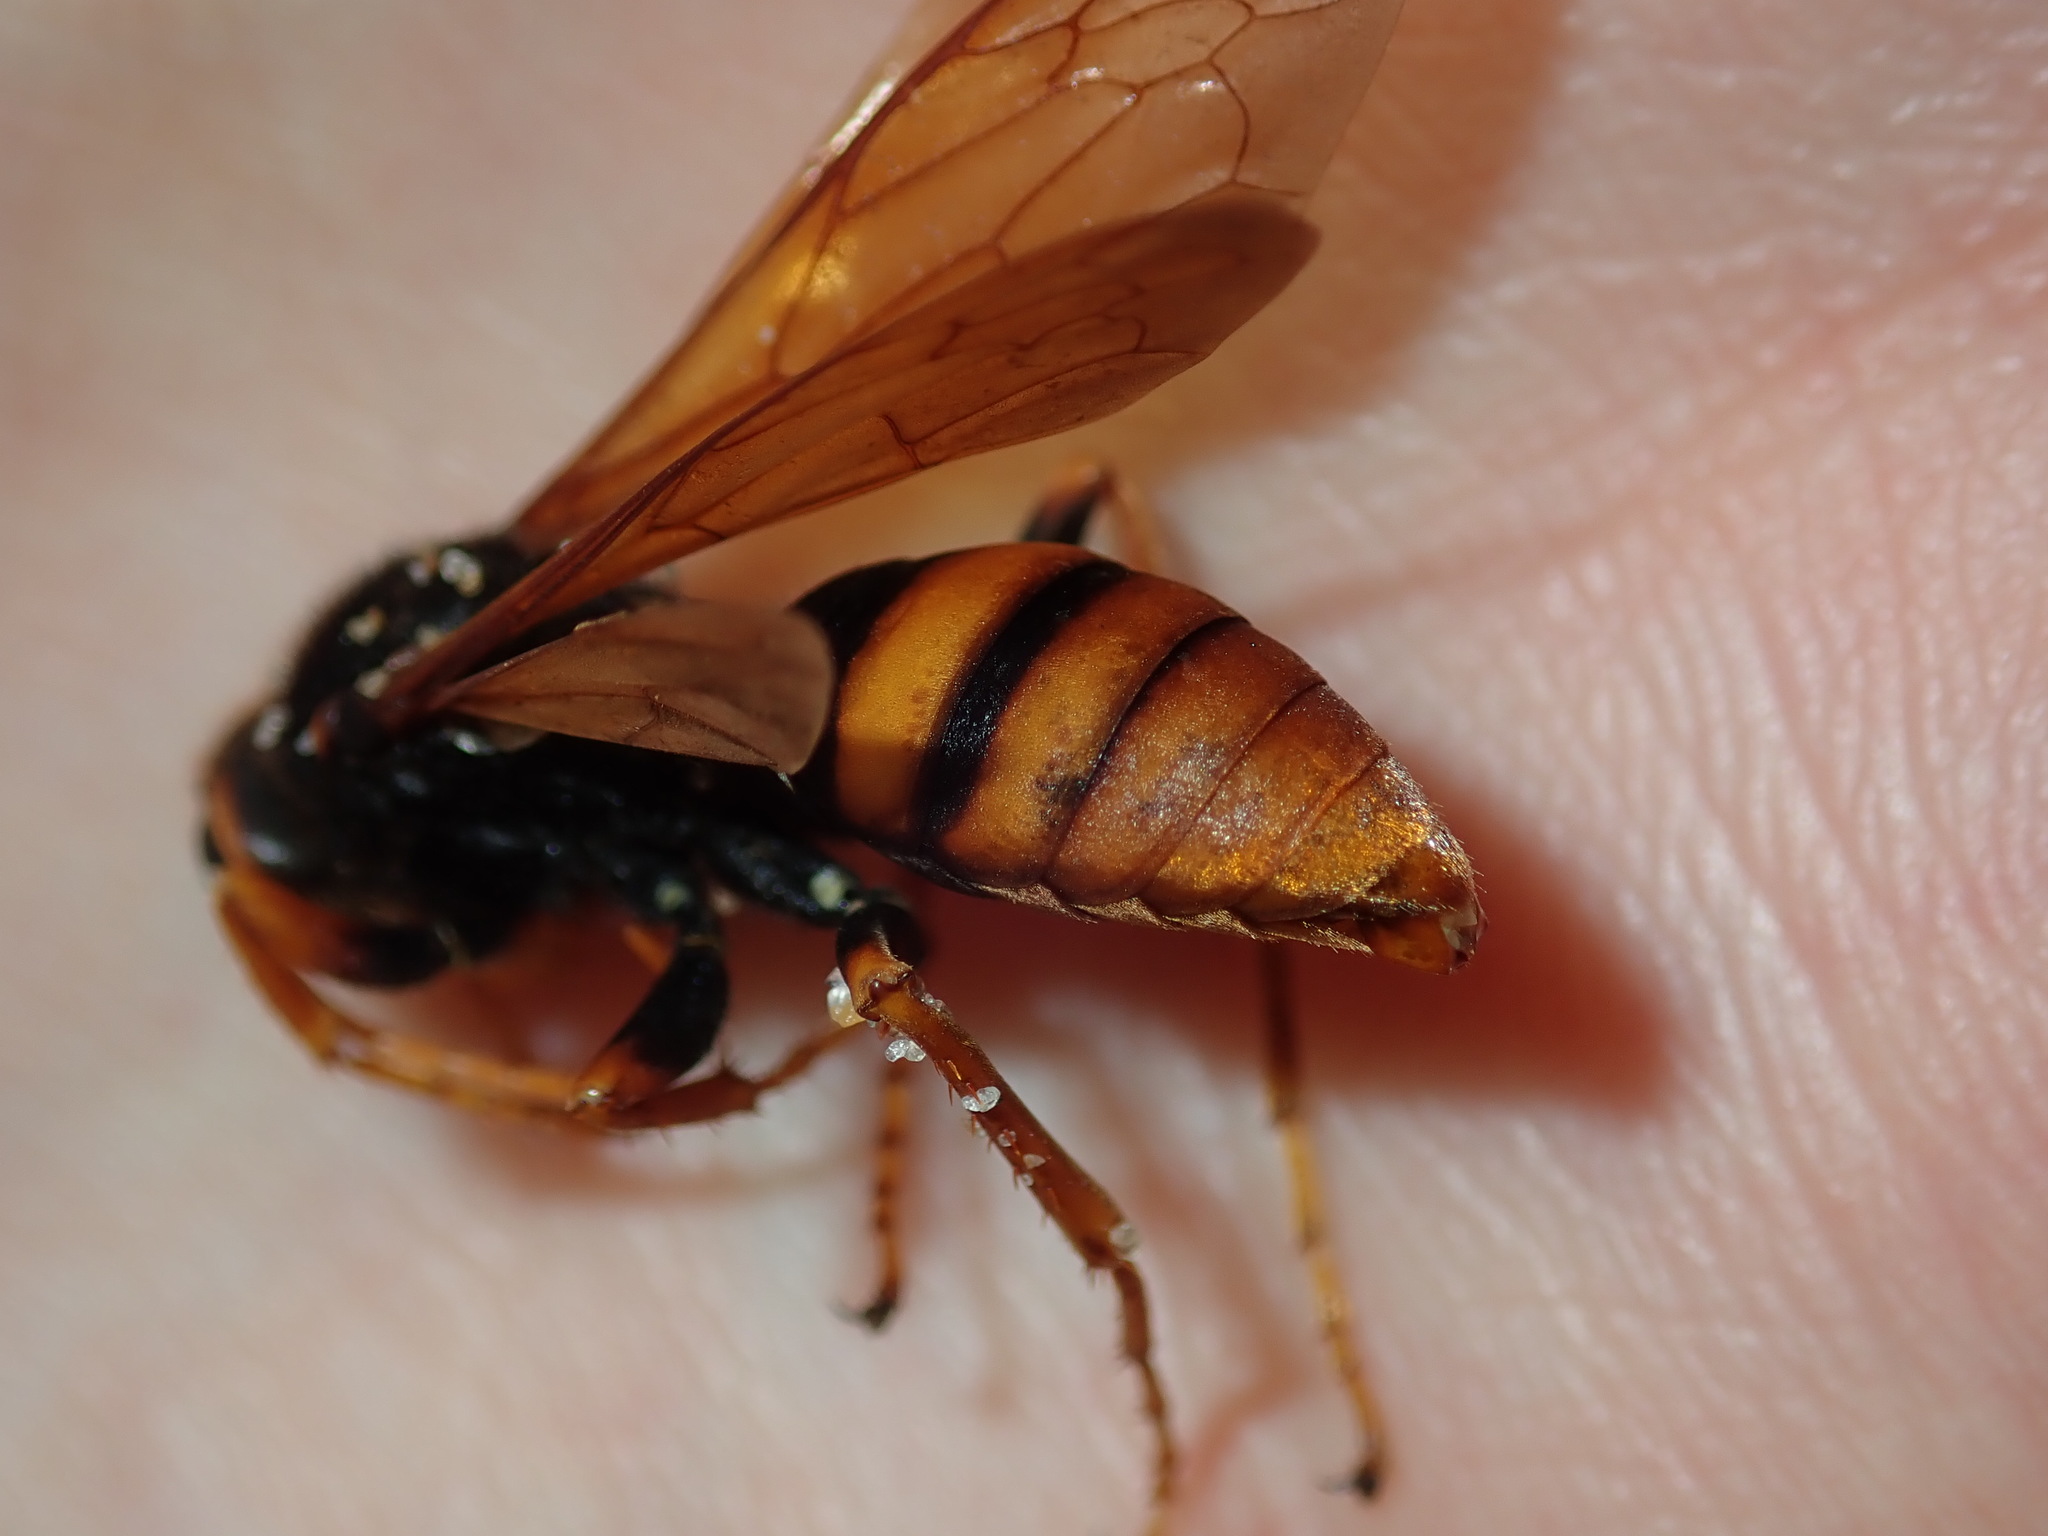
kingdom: Animalia
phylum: Arthropoda
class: Insecta
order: Hymenoptera
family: Crabronidae
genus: Exeirus
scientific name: Exeirus lateritius
